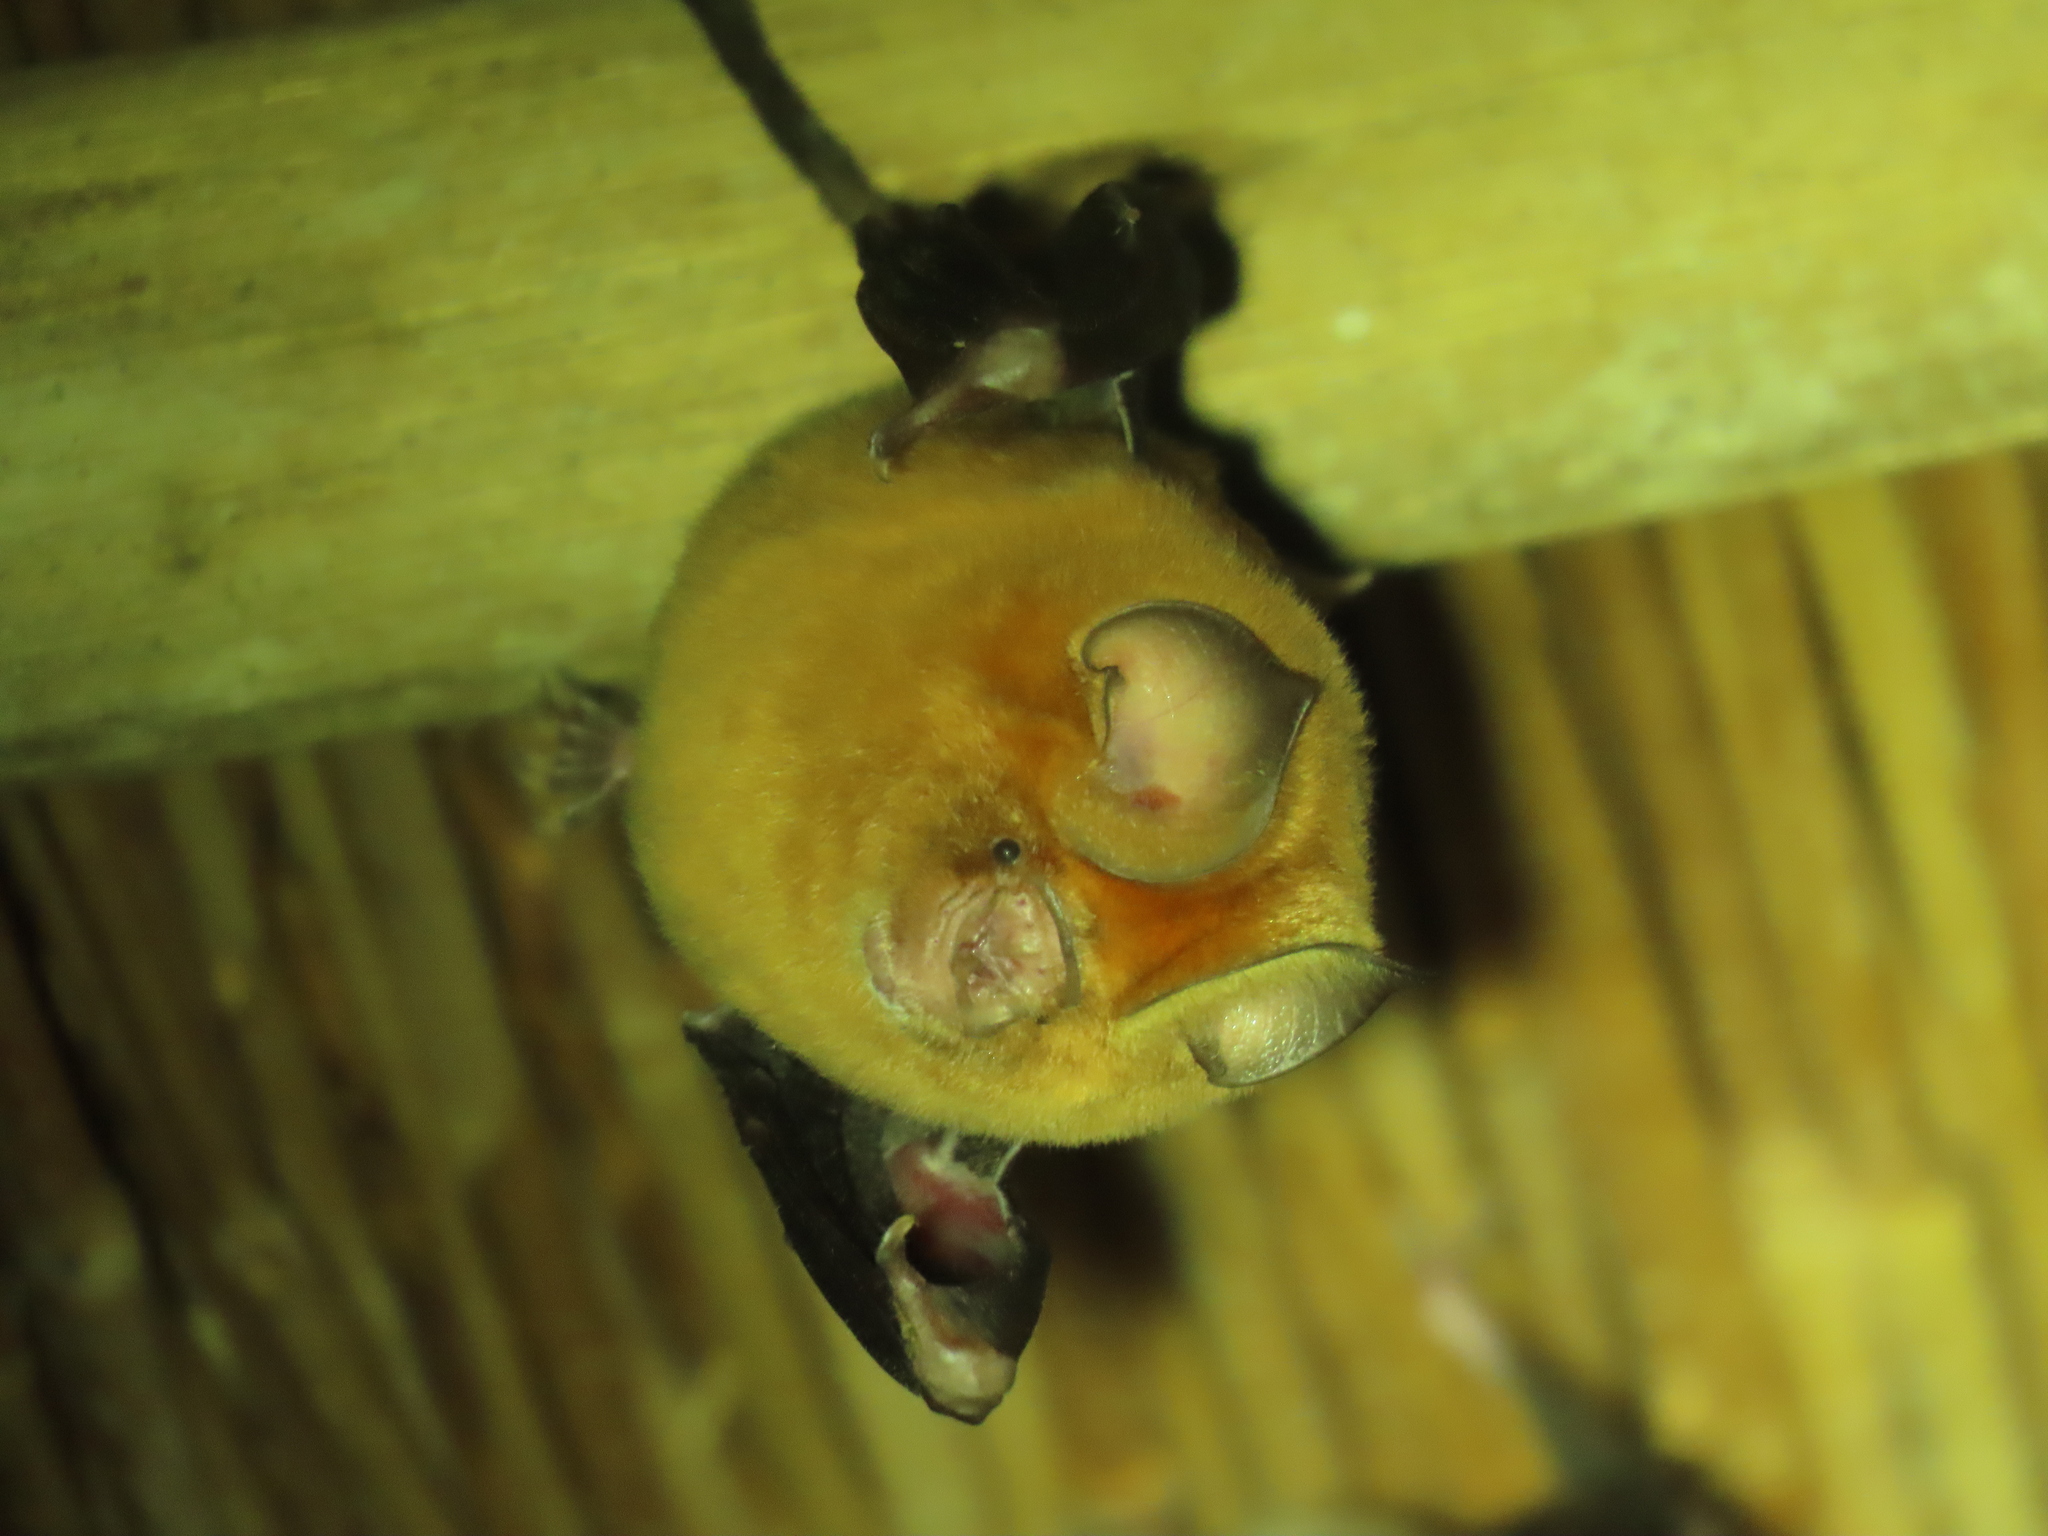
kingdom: Animalia
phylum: Chordata
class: Mammalia
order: Chiroptera
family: Hipposideridae
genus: Hipposideros
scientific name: Hipposideros caffer
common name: Sundevall's roundleaf bat
